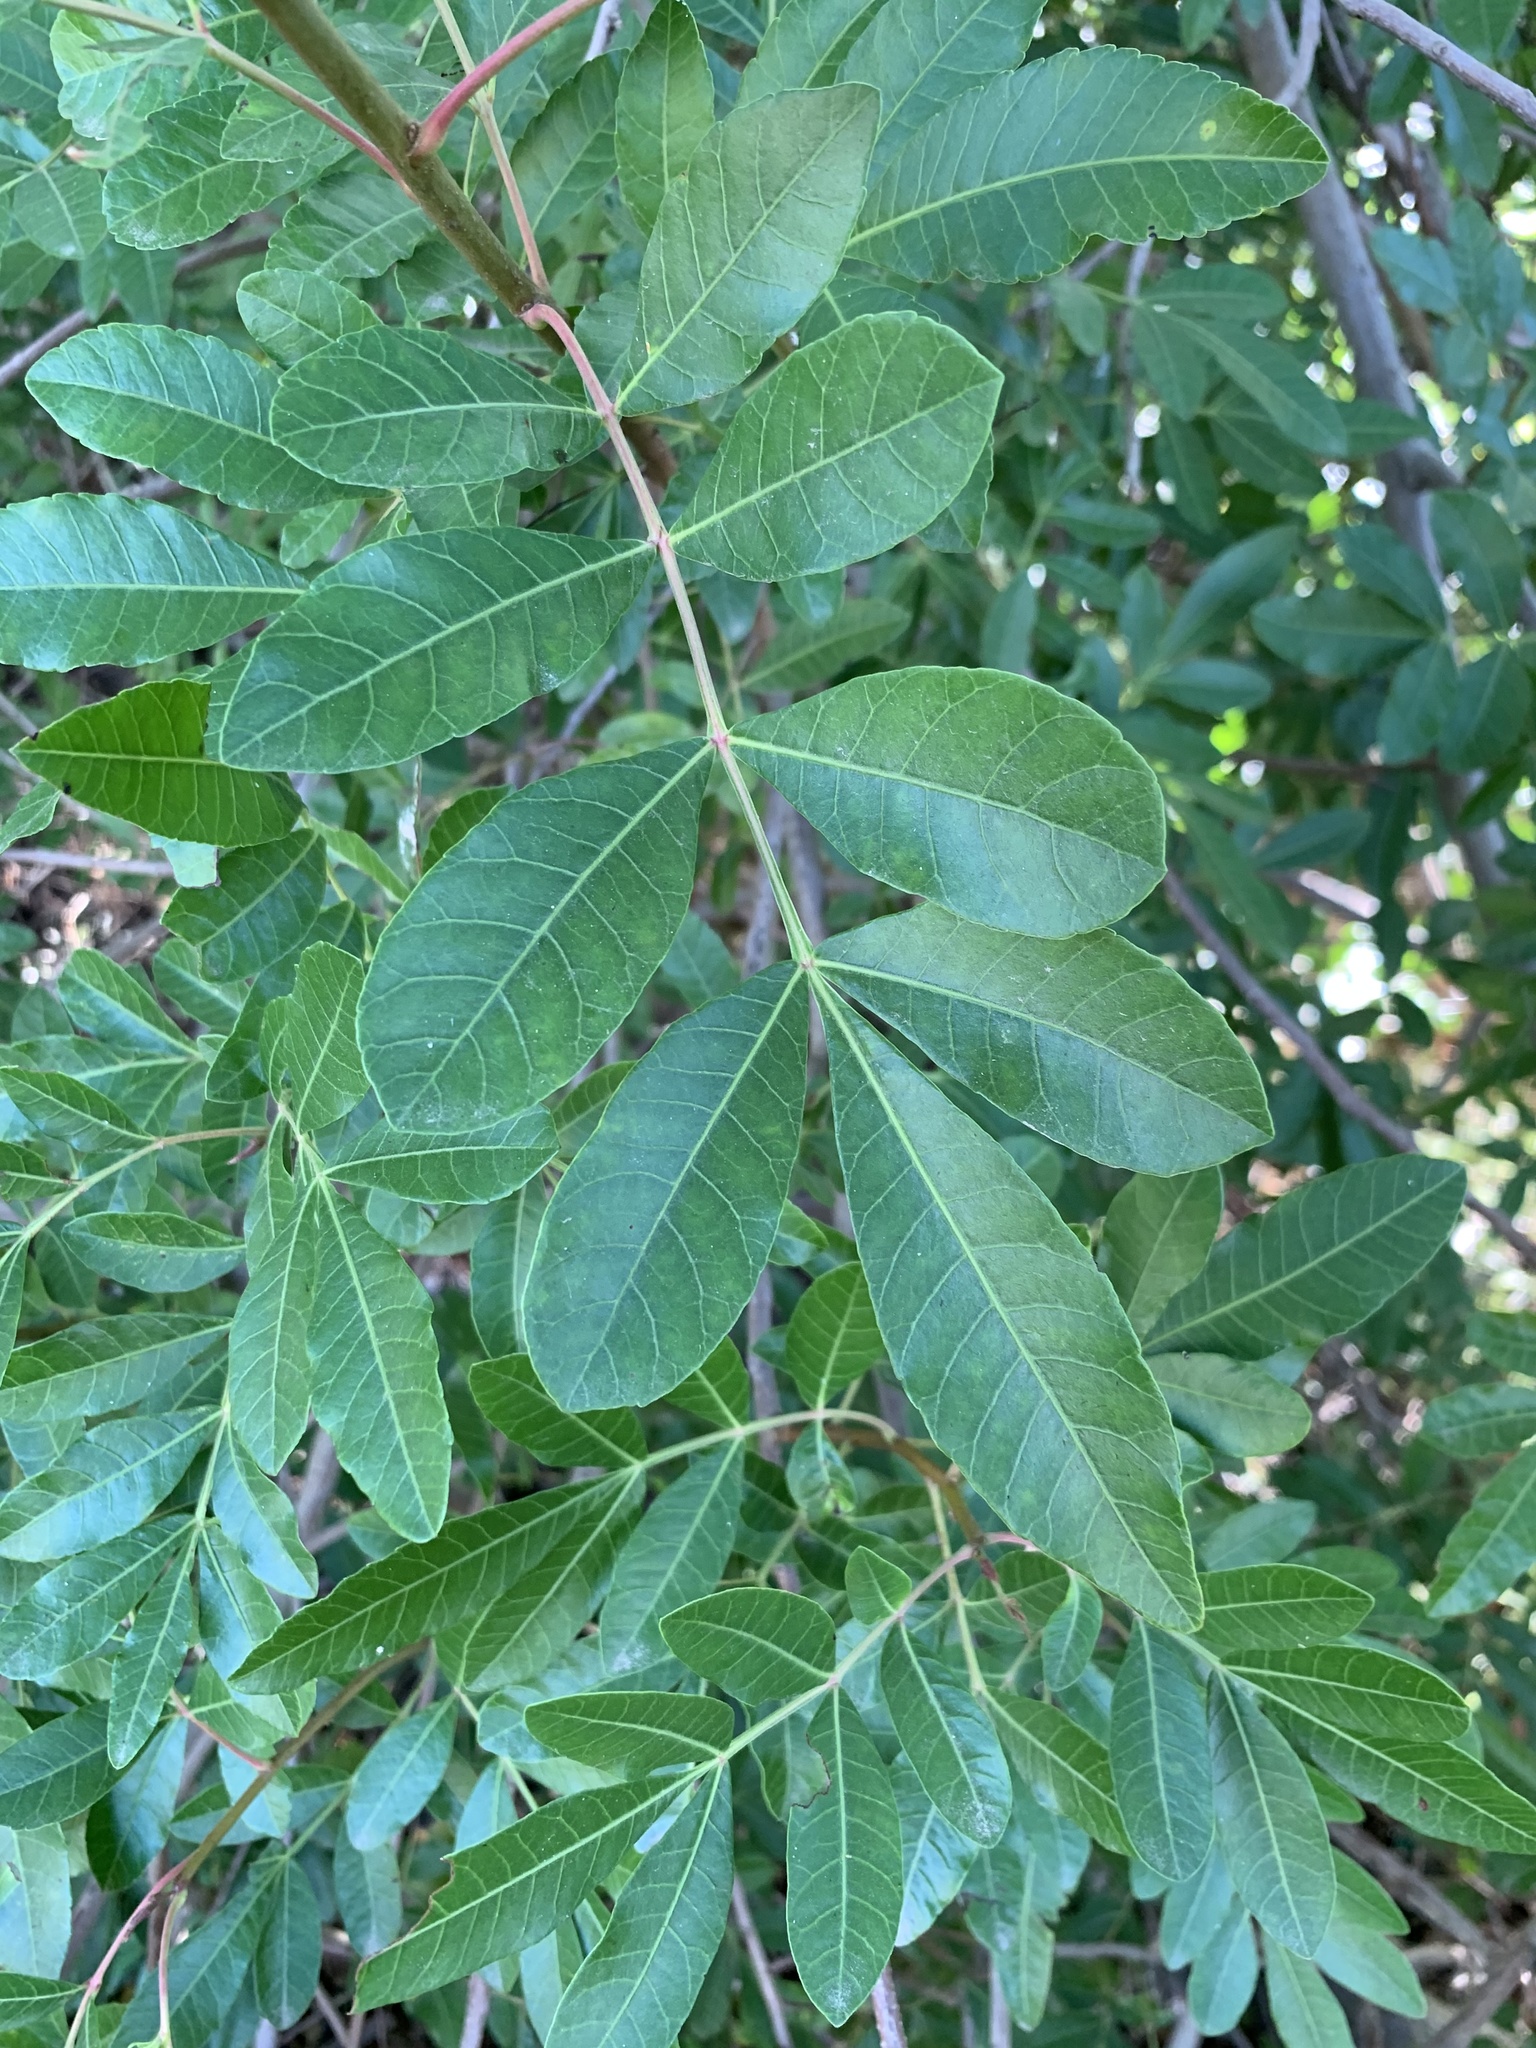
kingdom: Plantae
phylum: Tracheophyta
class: Magnoliopsida
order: Sapindales
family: Anacardiaceae
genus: Schinus
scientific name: Schinus terebinthifolia
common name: Brazilian peppertree
